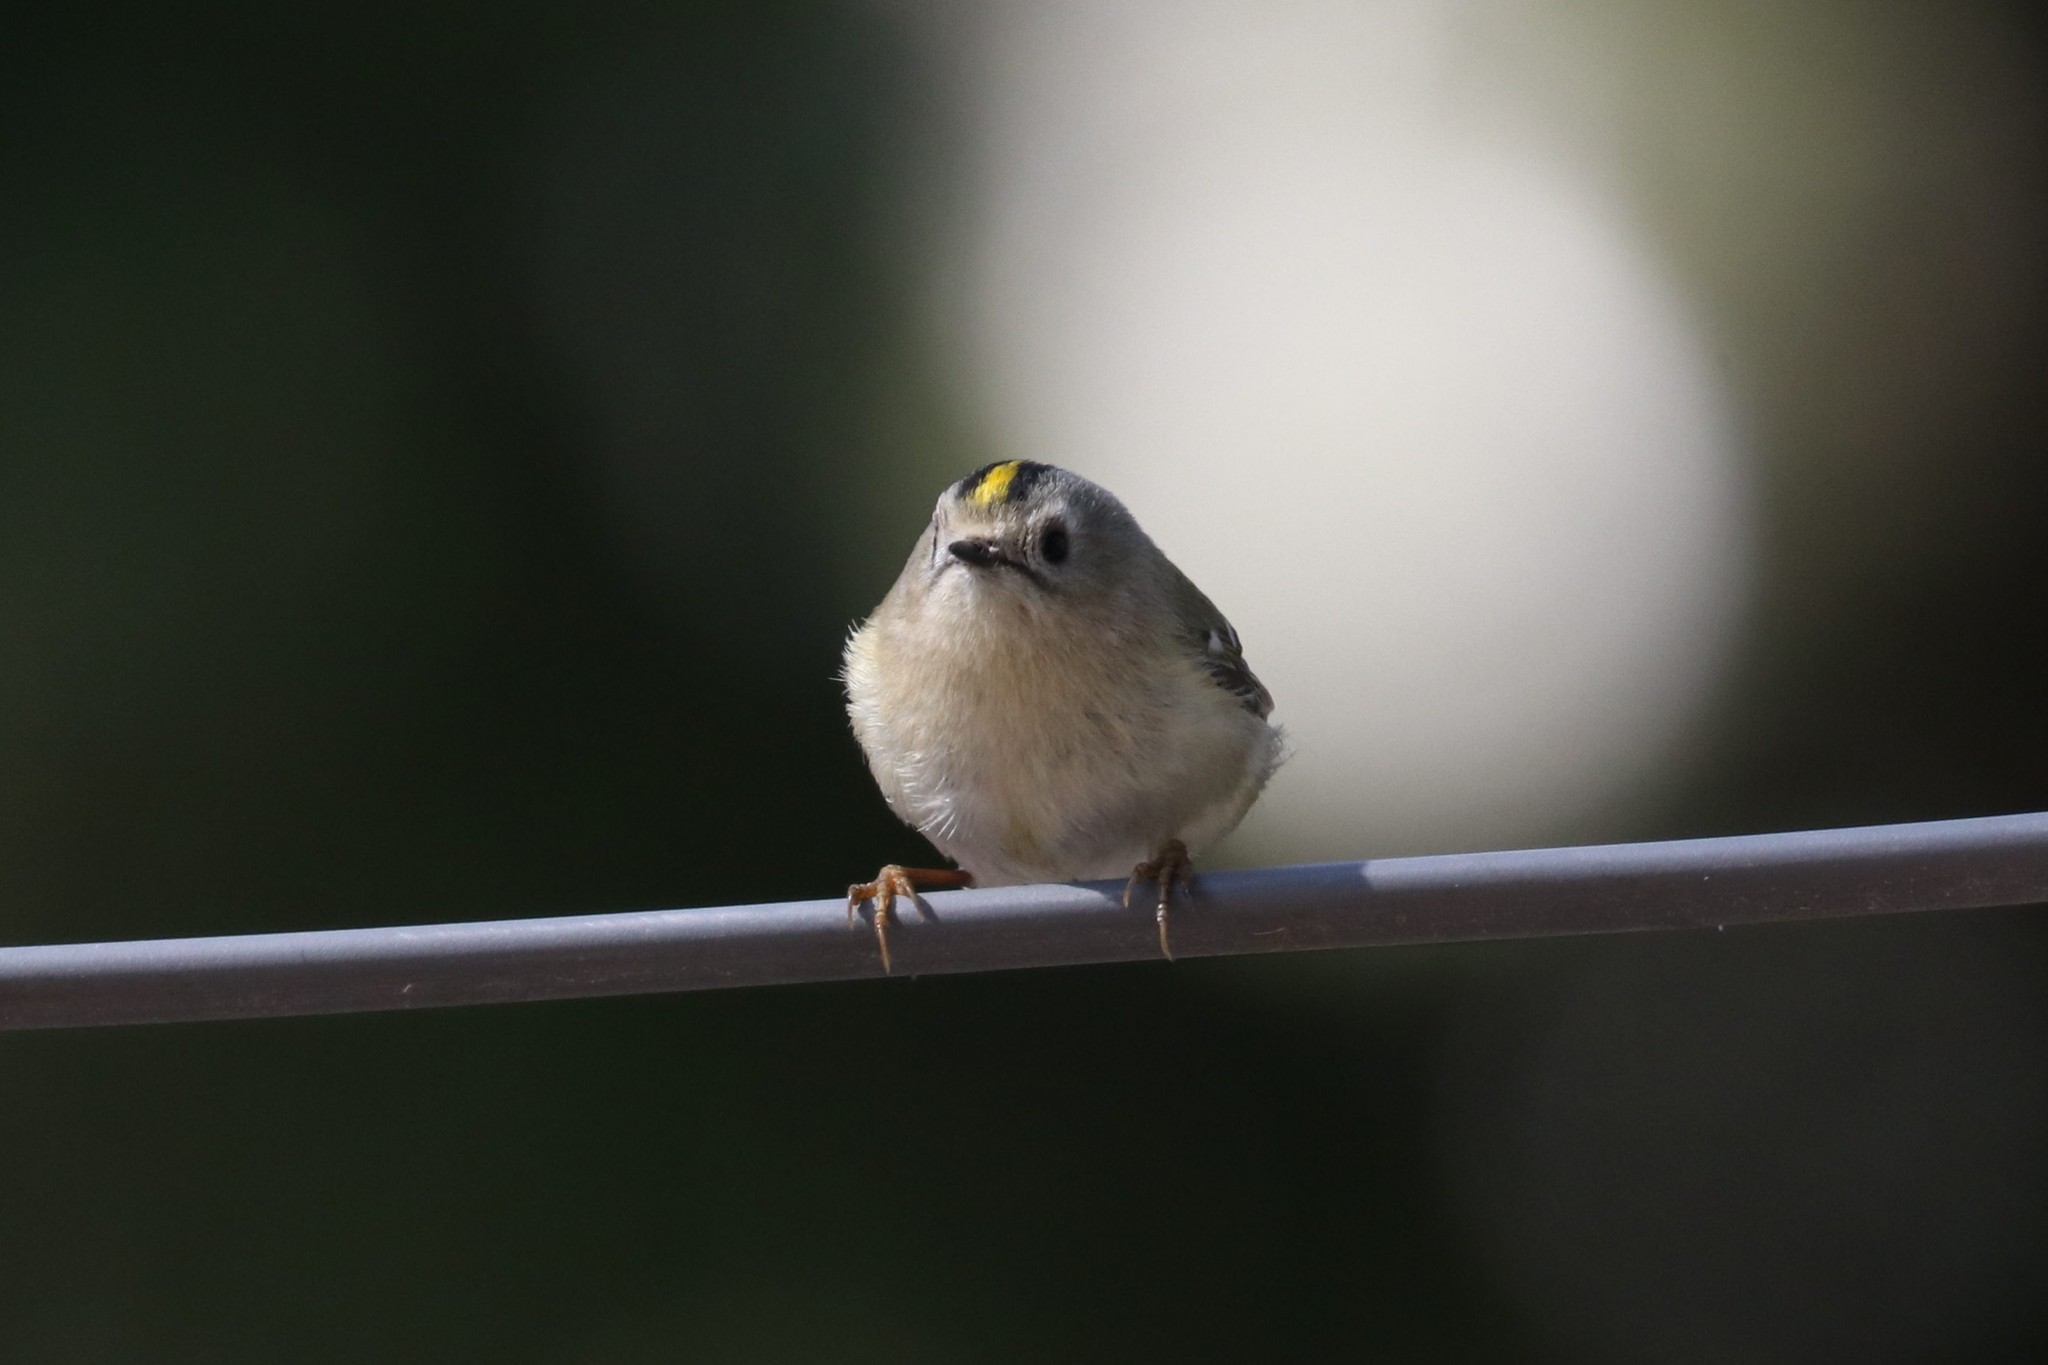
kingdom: Animalia
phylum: Chordata
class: Aves
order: Passeriformes
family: Regulidae
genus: Regulus
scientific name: Regulus regulus
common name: Goldcrest
